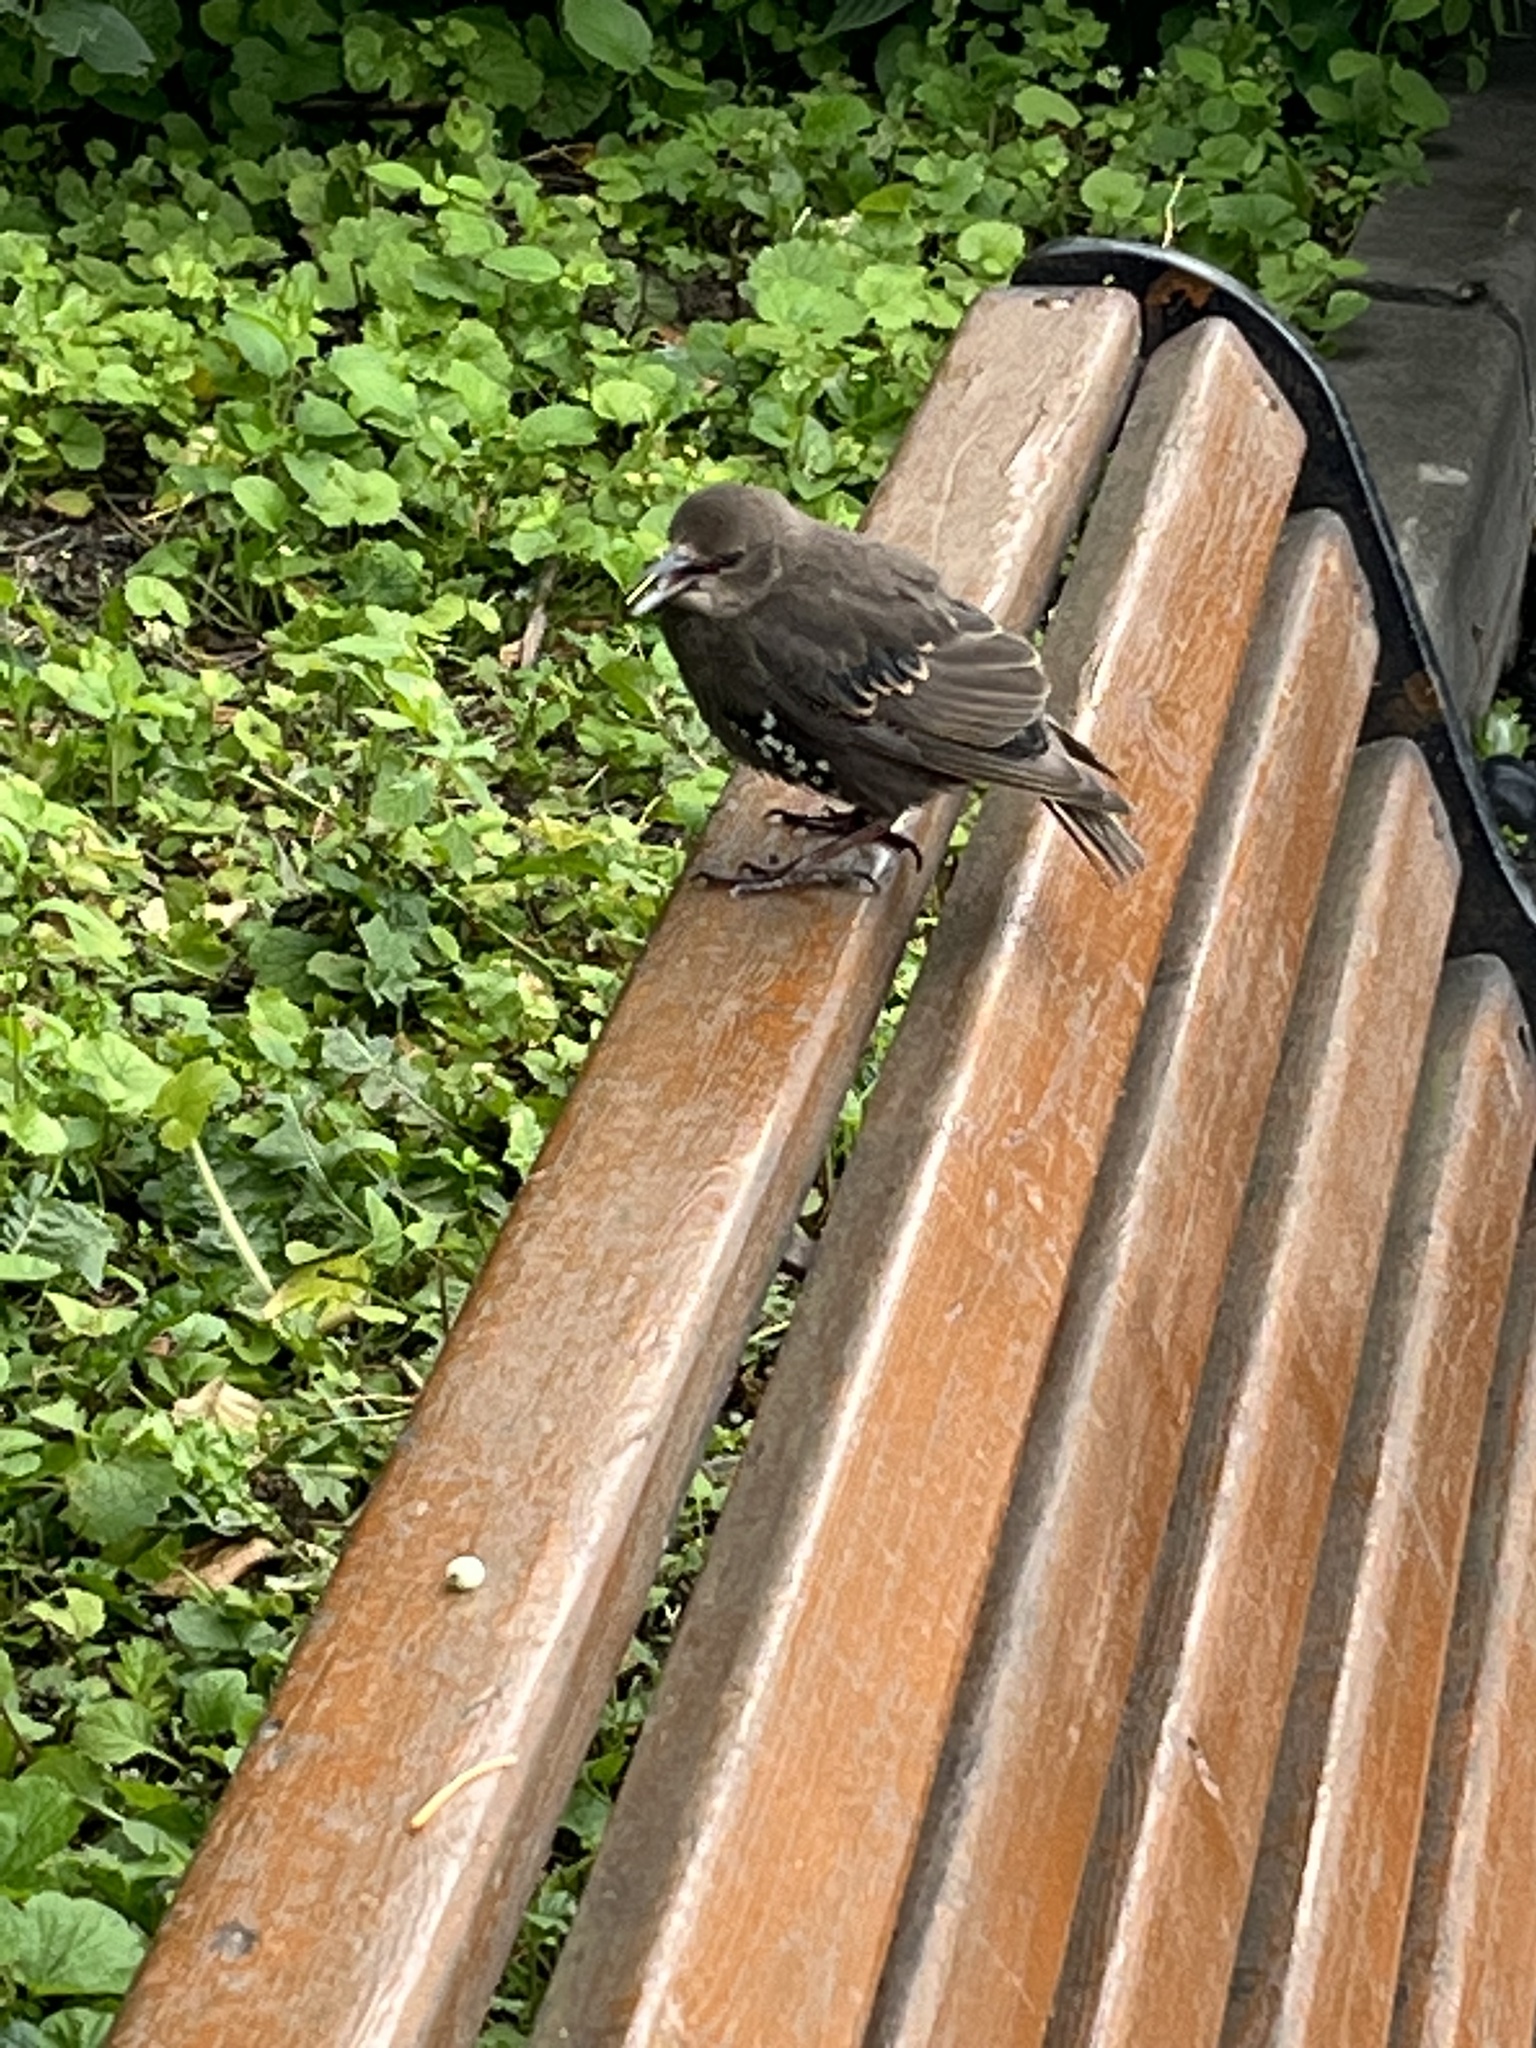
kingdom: Animalia
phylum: Chordata
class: Aves
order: Passeriformes
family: Sturnidae
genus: Sturnus
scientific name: Sturnus vulgaris
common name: Common starling
